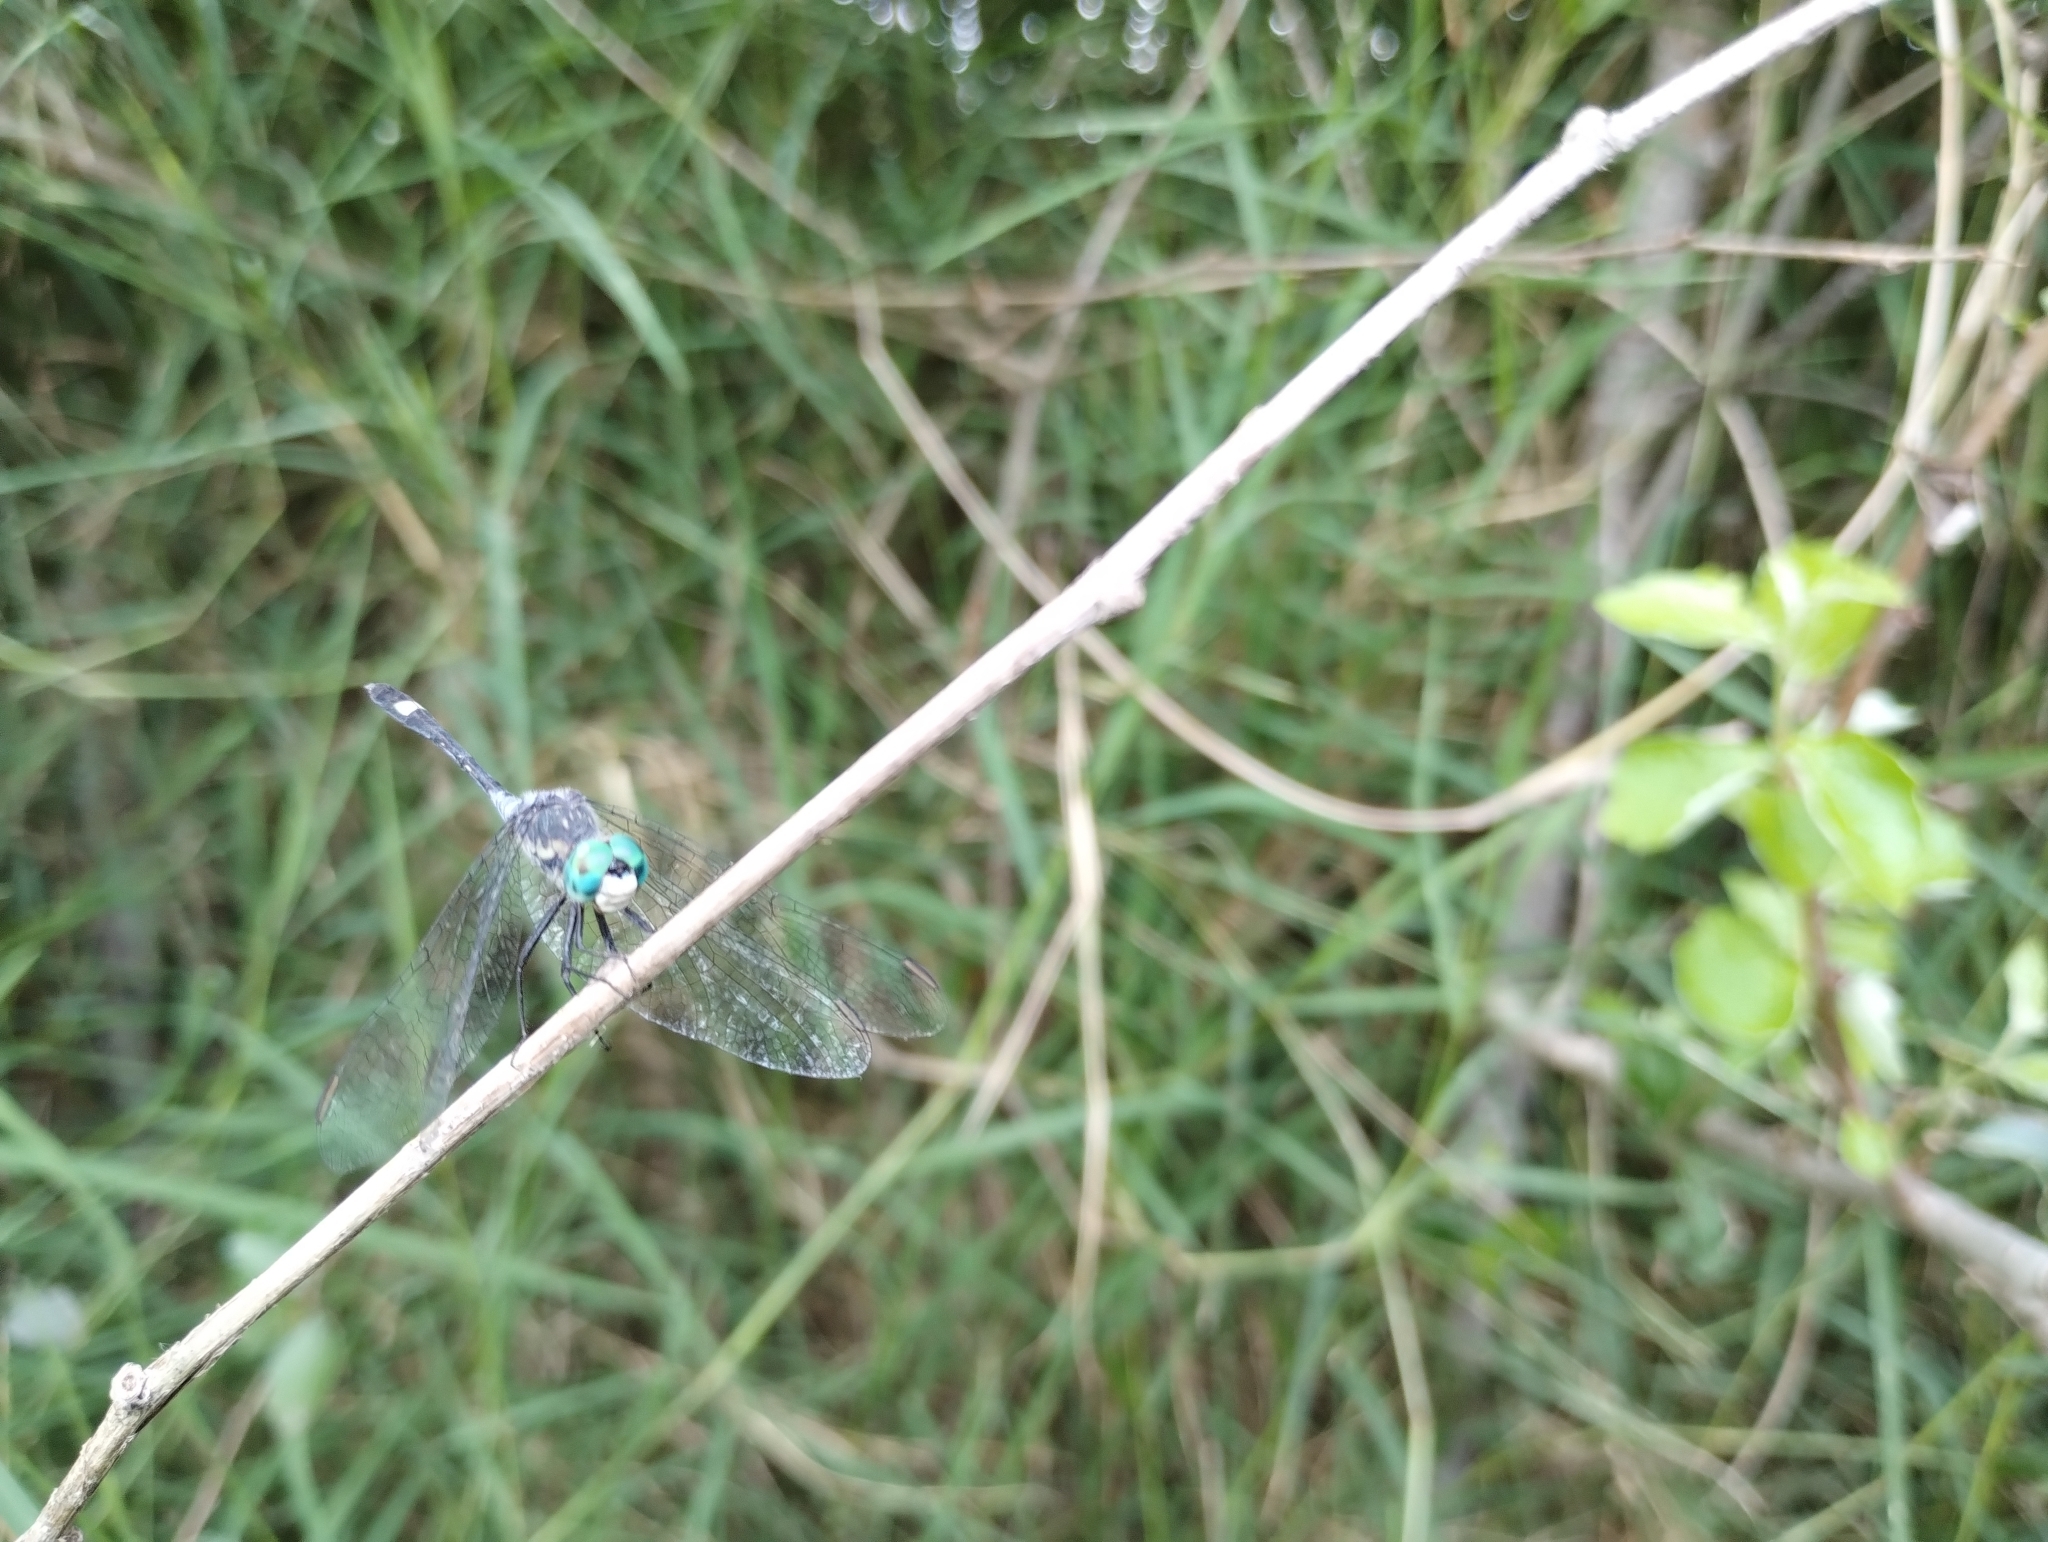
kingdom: Animalia
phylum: Arthropoda
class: Insecta
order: Odonata
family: Libellulidae
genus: Micrathyria
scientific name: Micrathyria longifasciata
